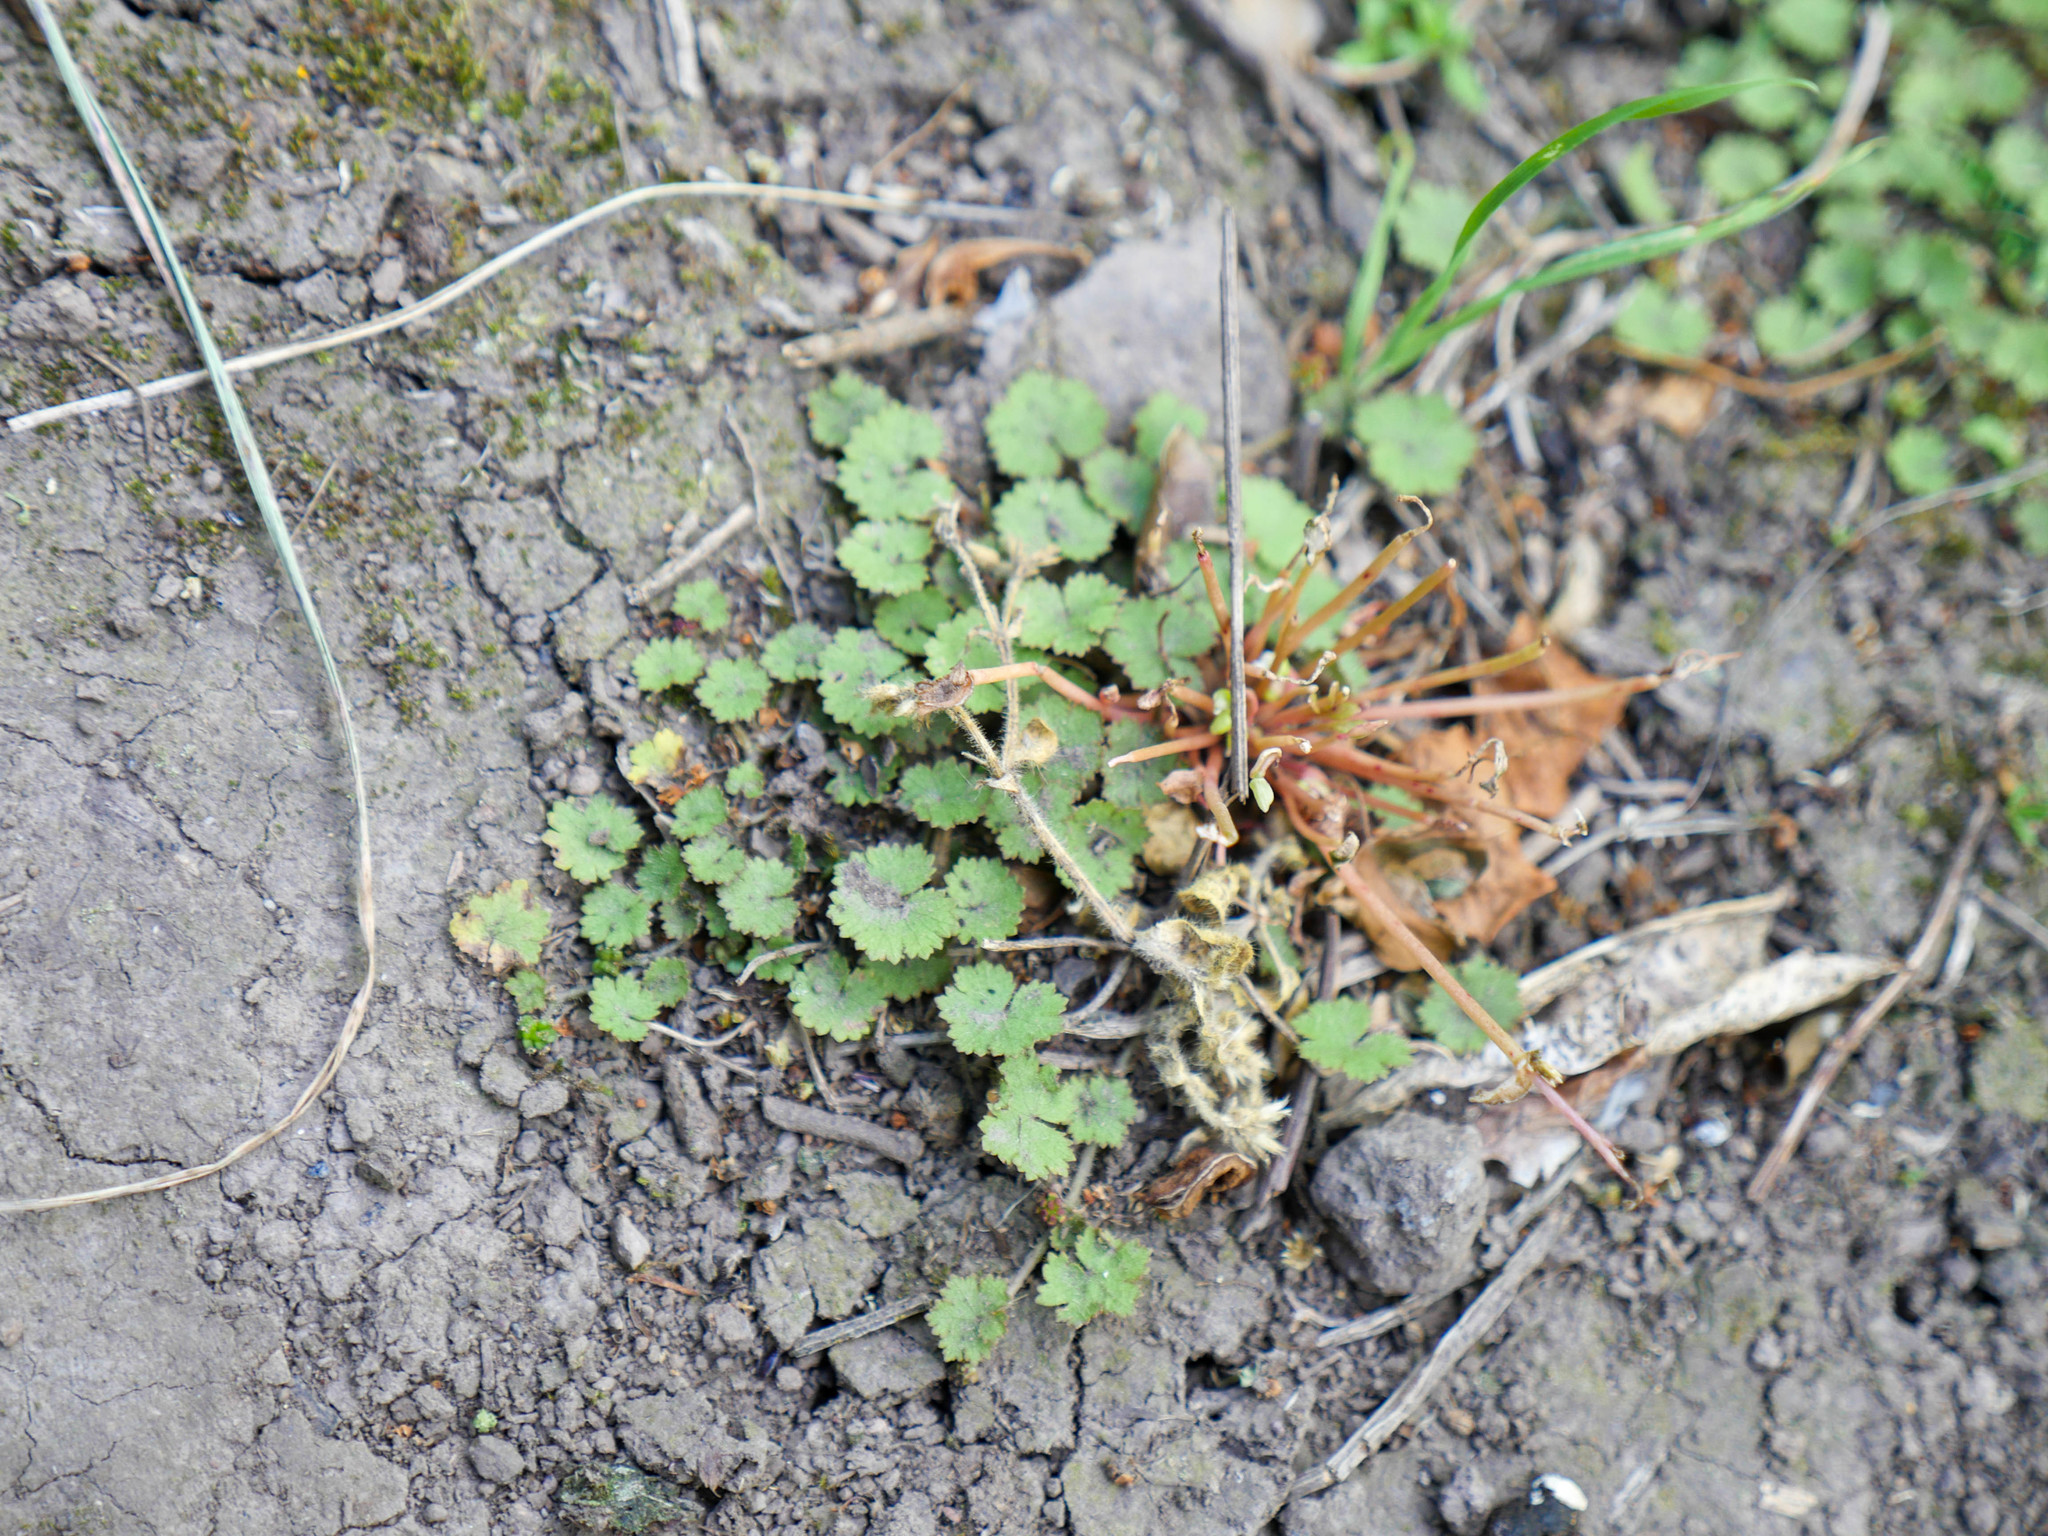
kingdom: Plantae
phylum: Tracheophyta
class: Magnoliopsida
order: Apiales
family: Araliaceae
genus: Hydrocotyle
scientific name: Hydrocotyle moschata
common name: Hairy pennywort
